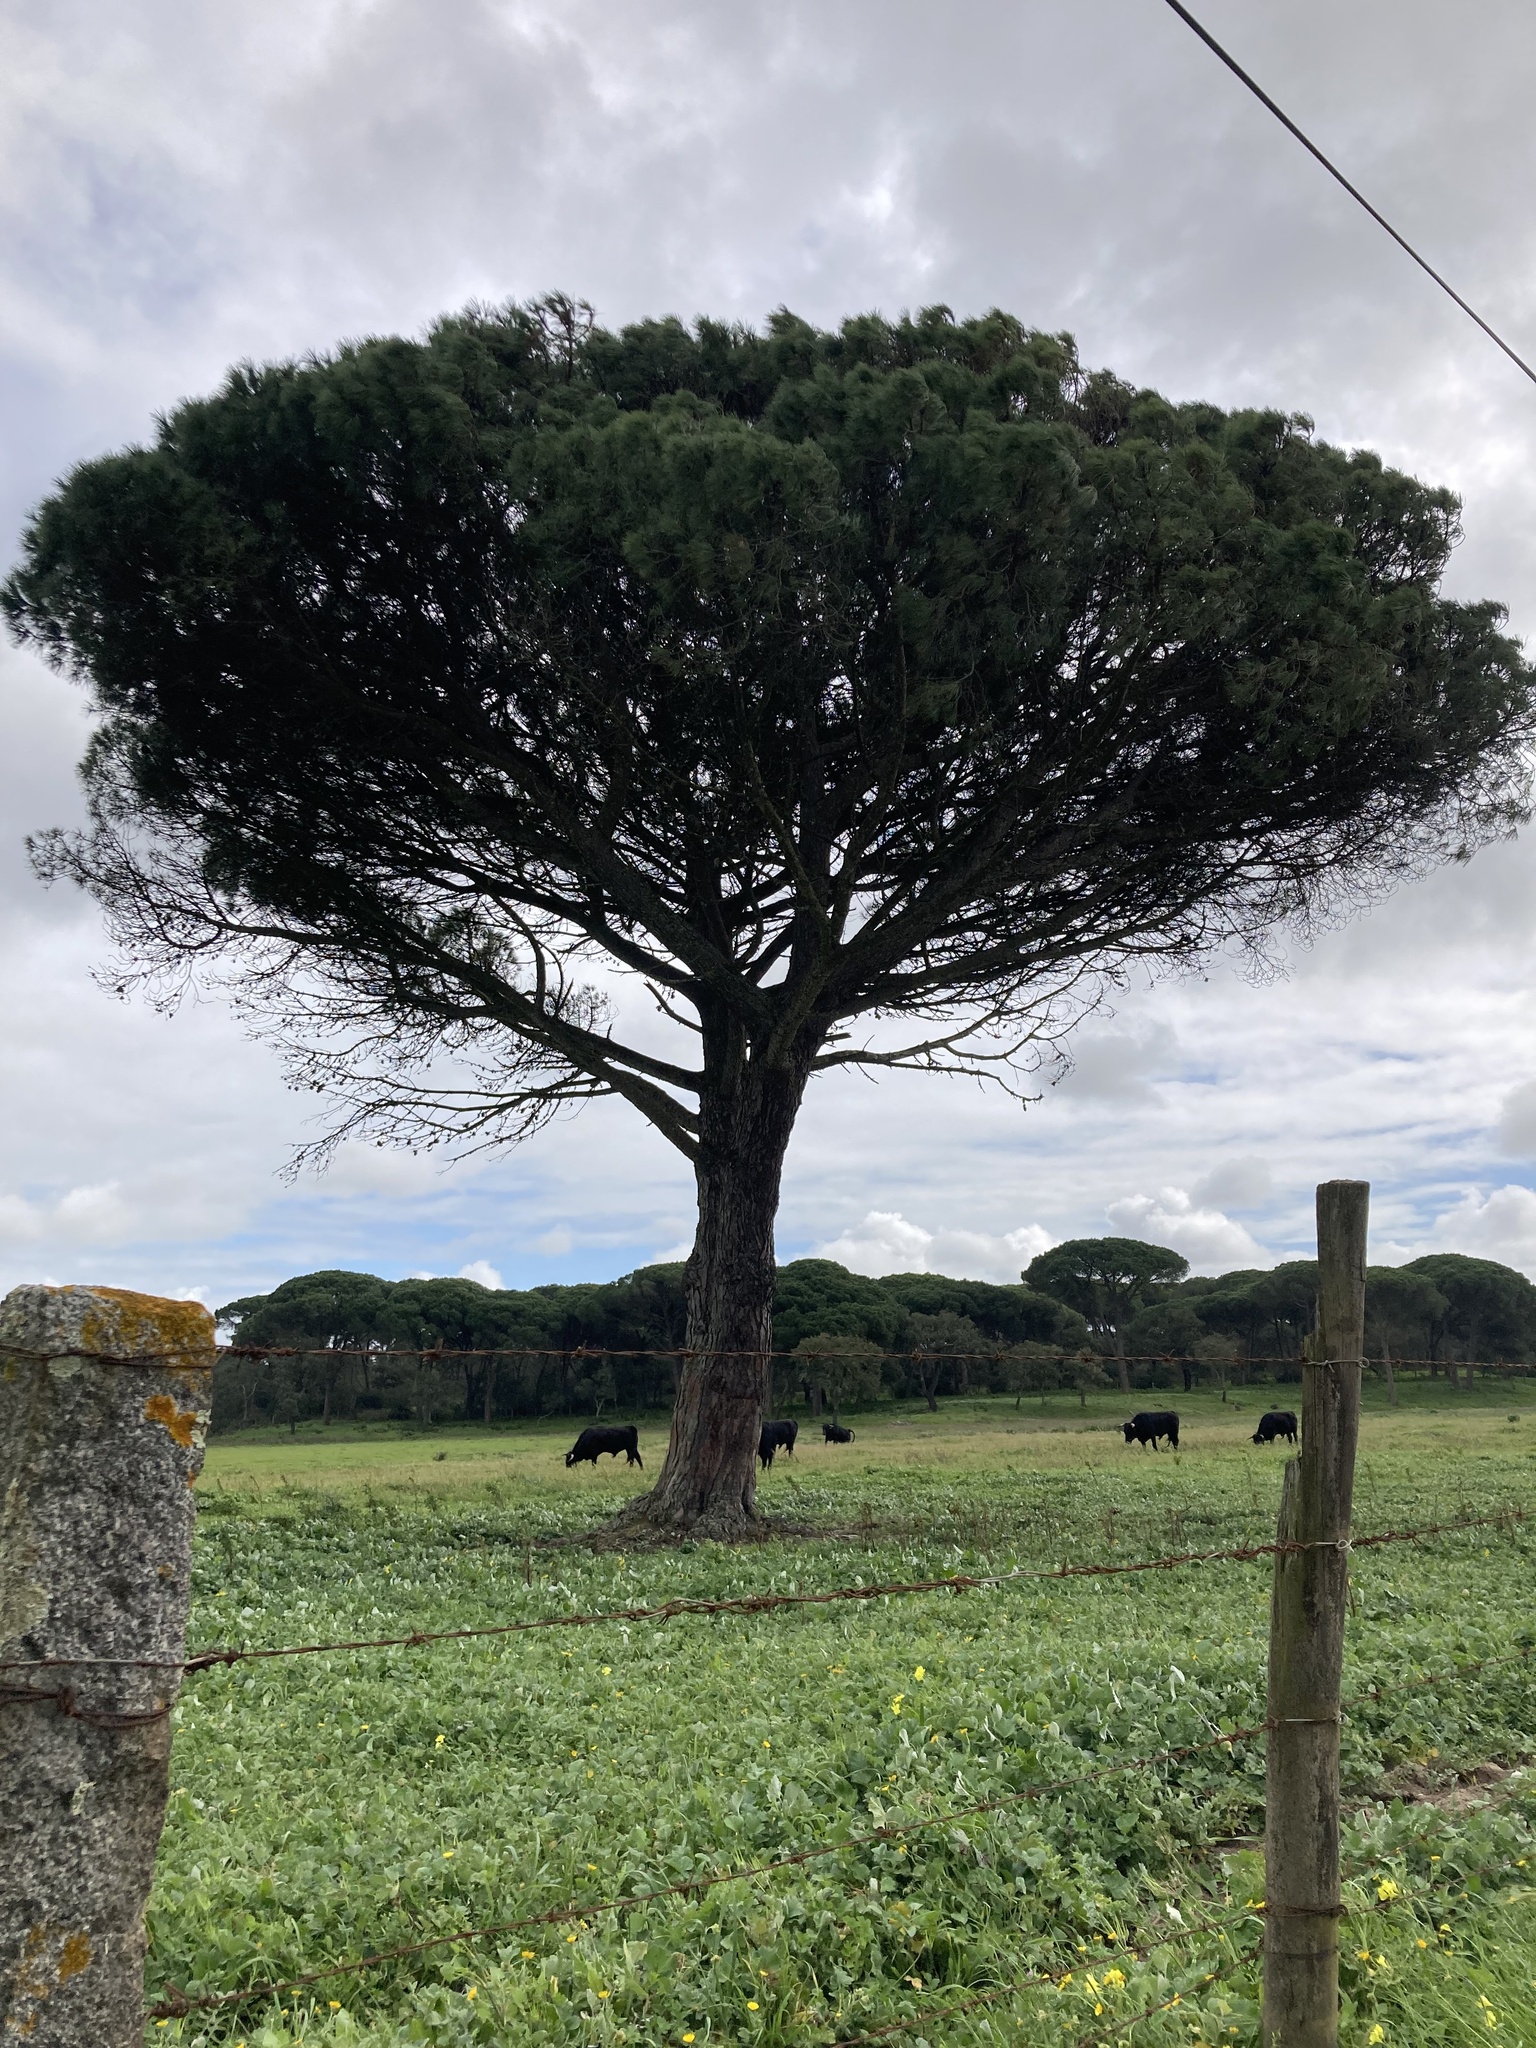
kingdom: Plantae
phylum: Tracheophyta
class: Pinopsida
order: Pinales
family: Pinaceae
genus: Pinus
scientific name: Pinus pinea
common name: Italian stone pine
